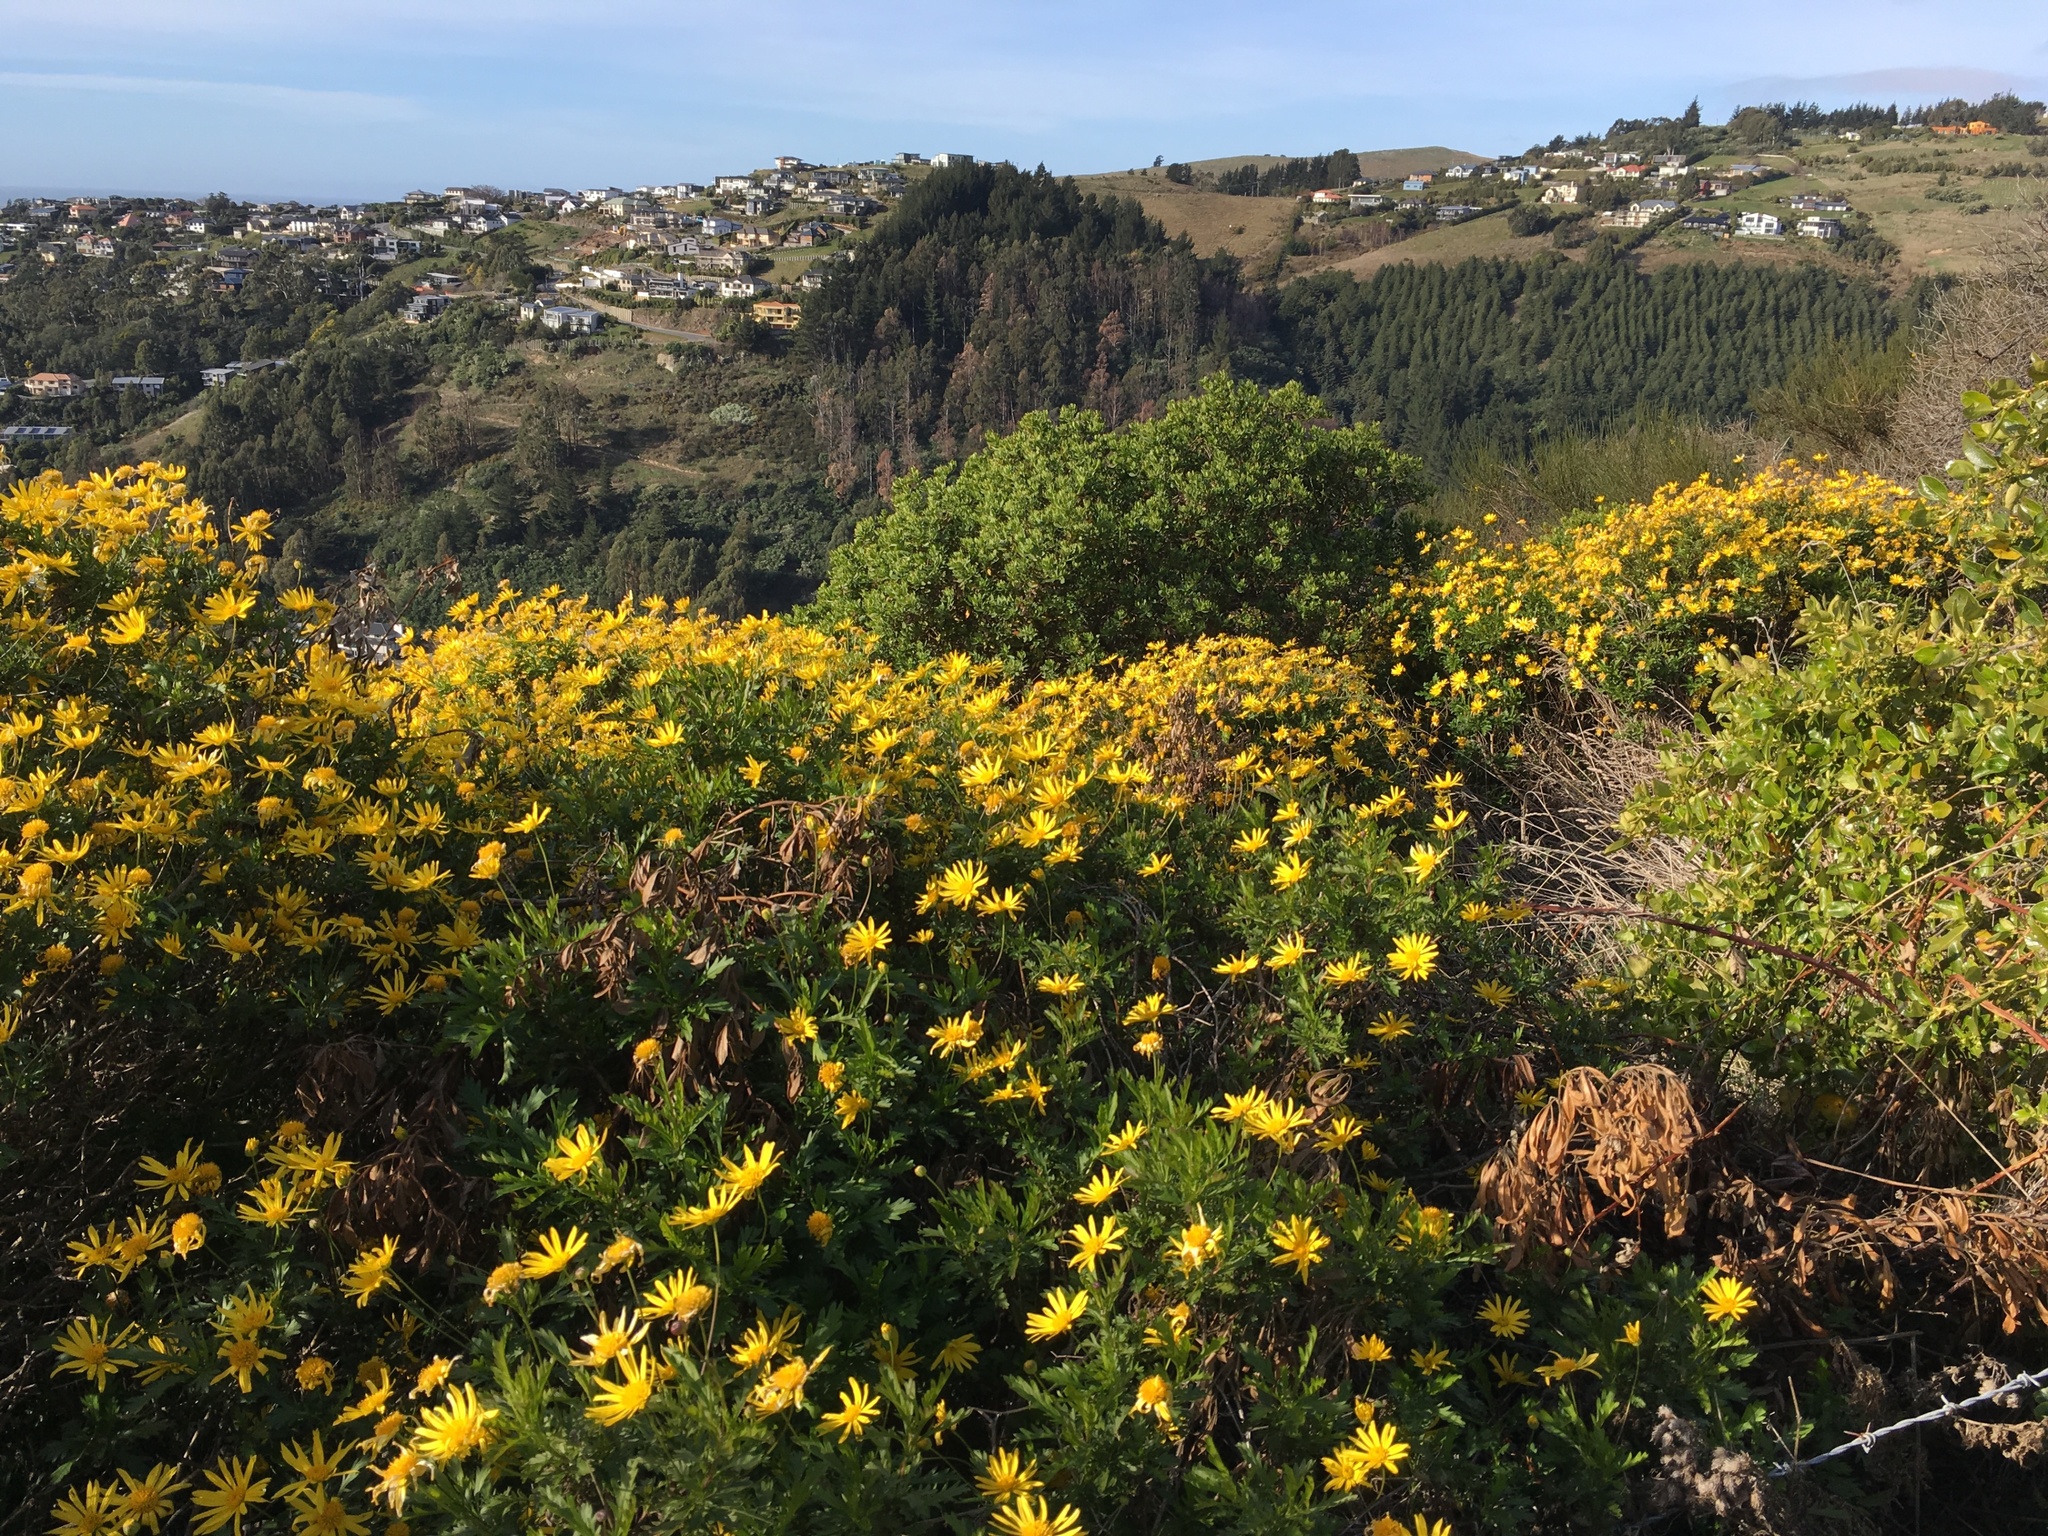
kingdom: Plantae
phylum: Tracheophyta
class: Magnoliopsida
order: Asterales
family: Asteraceae
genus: Euryops
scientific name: Euryops chrysanthemoides
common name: Bull's eye
